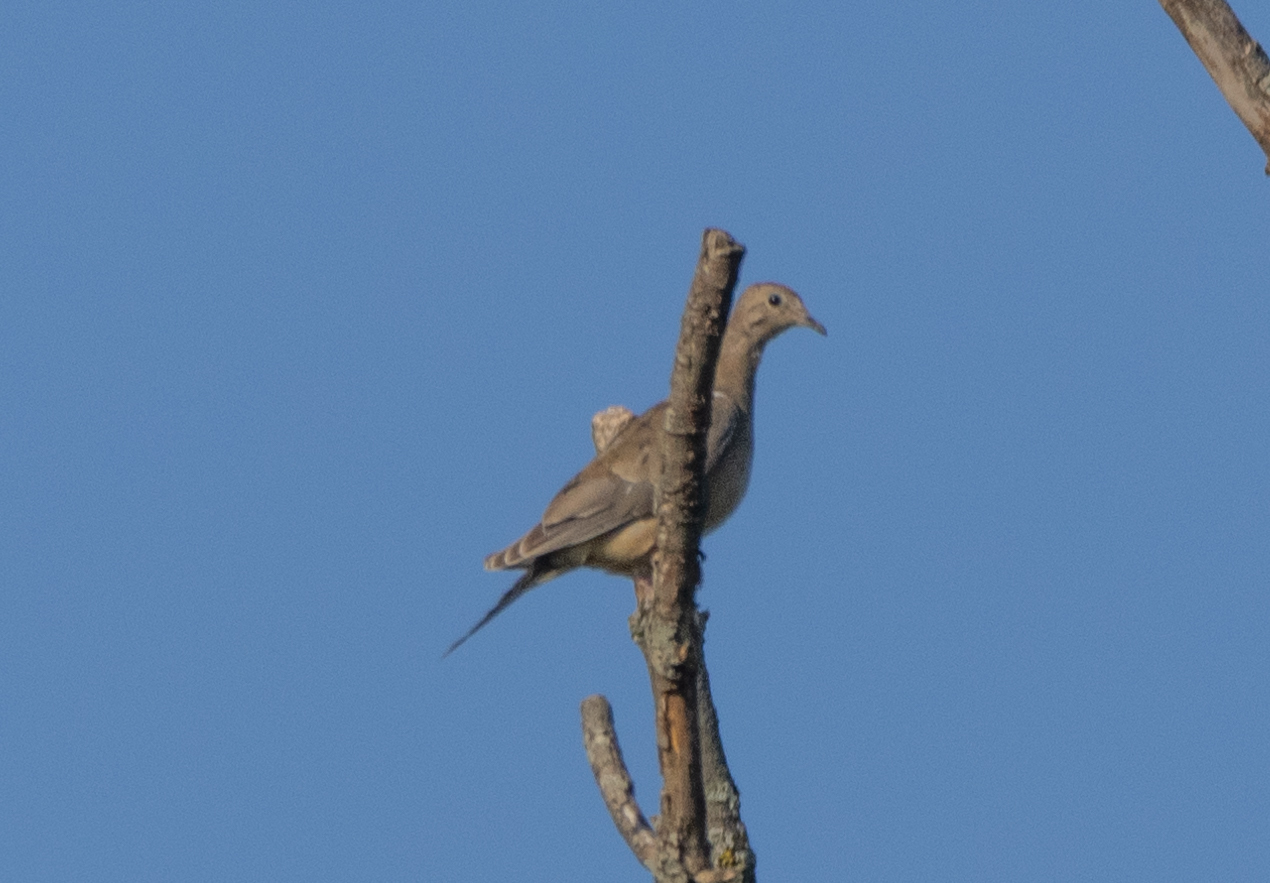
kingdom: Animalia
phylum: Chordata
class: Aves
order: Columbiformes
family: Columbidae
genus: Zenaida
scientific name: Zenaida macroura
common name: Mourning dove
